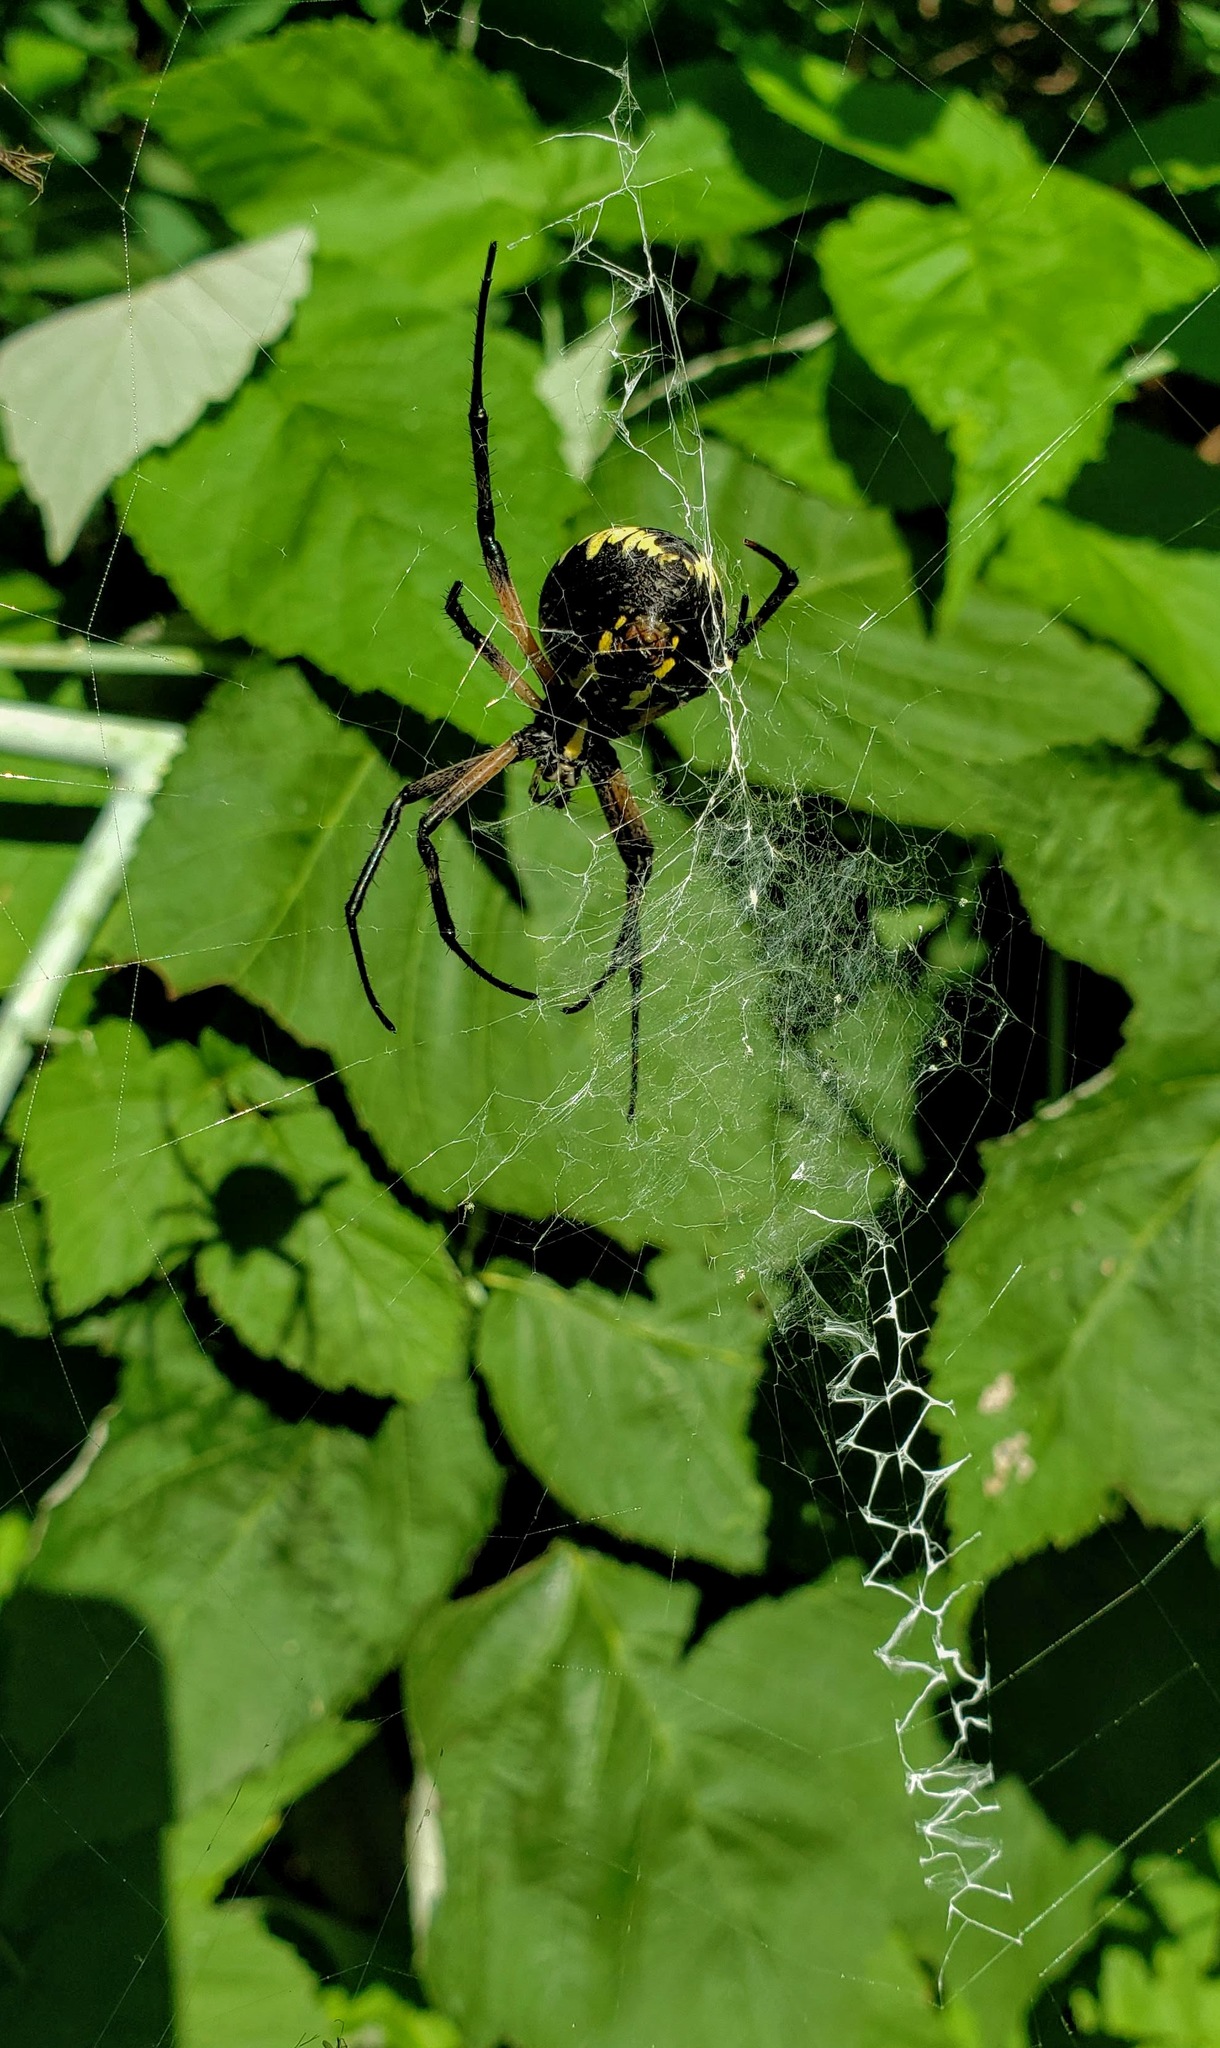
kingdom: Animalia
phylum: Arthropoda
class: Arachnida
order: Araneae
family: Araneidae
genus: Argiope
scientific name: Argiope aurantia
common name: Orb weavers
